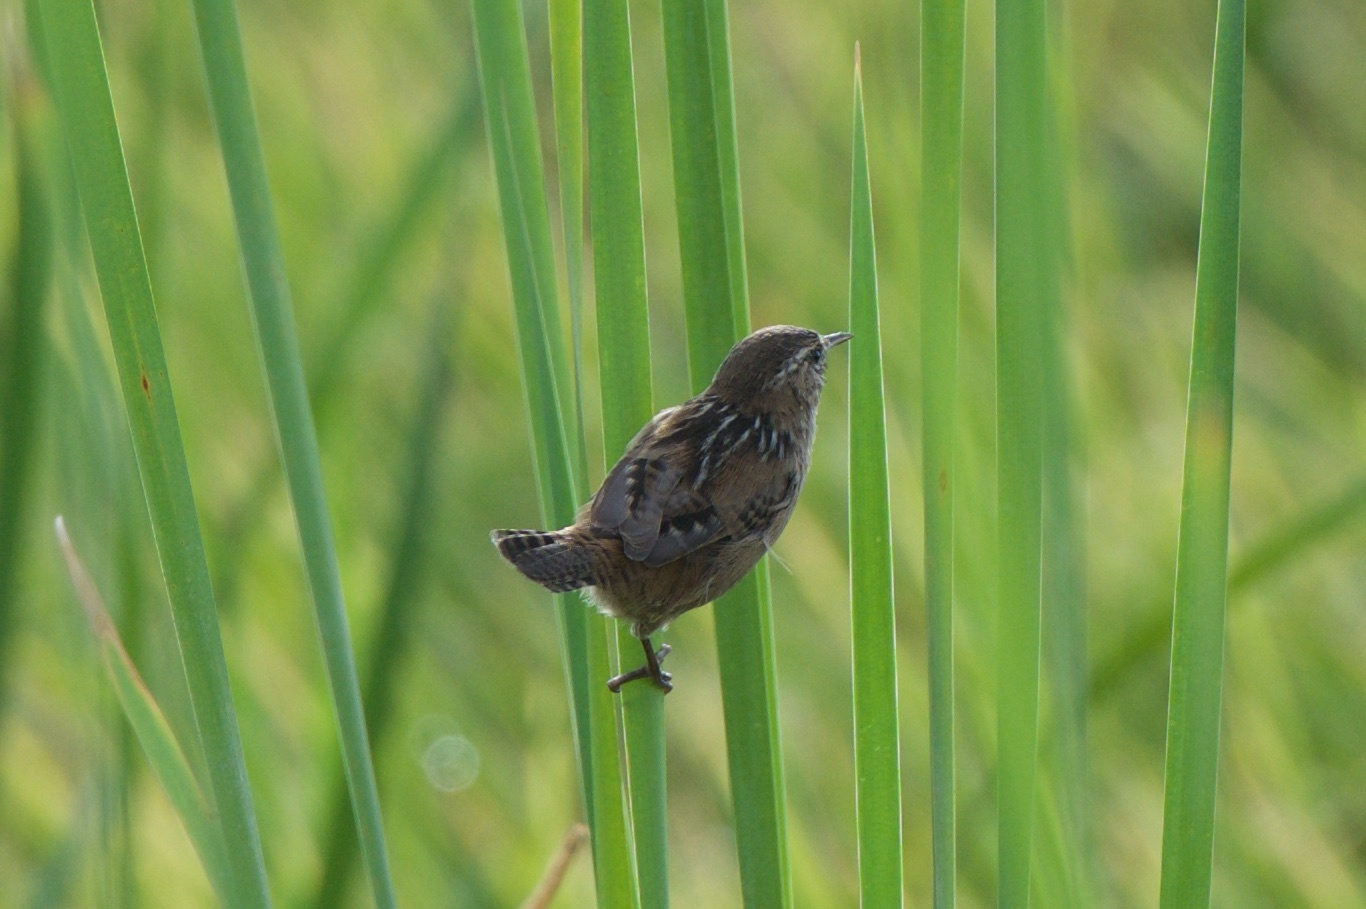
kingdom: Animalia
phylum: Chordata
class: Aves
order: Passeriformes
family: Troglodytidae
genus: Cistothorus
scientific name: Cistothorus palustris
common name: Marsh wren
